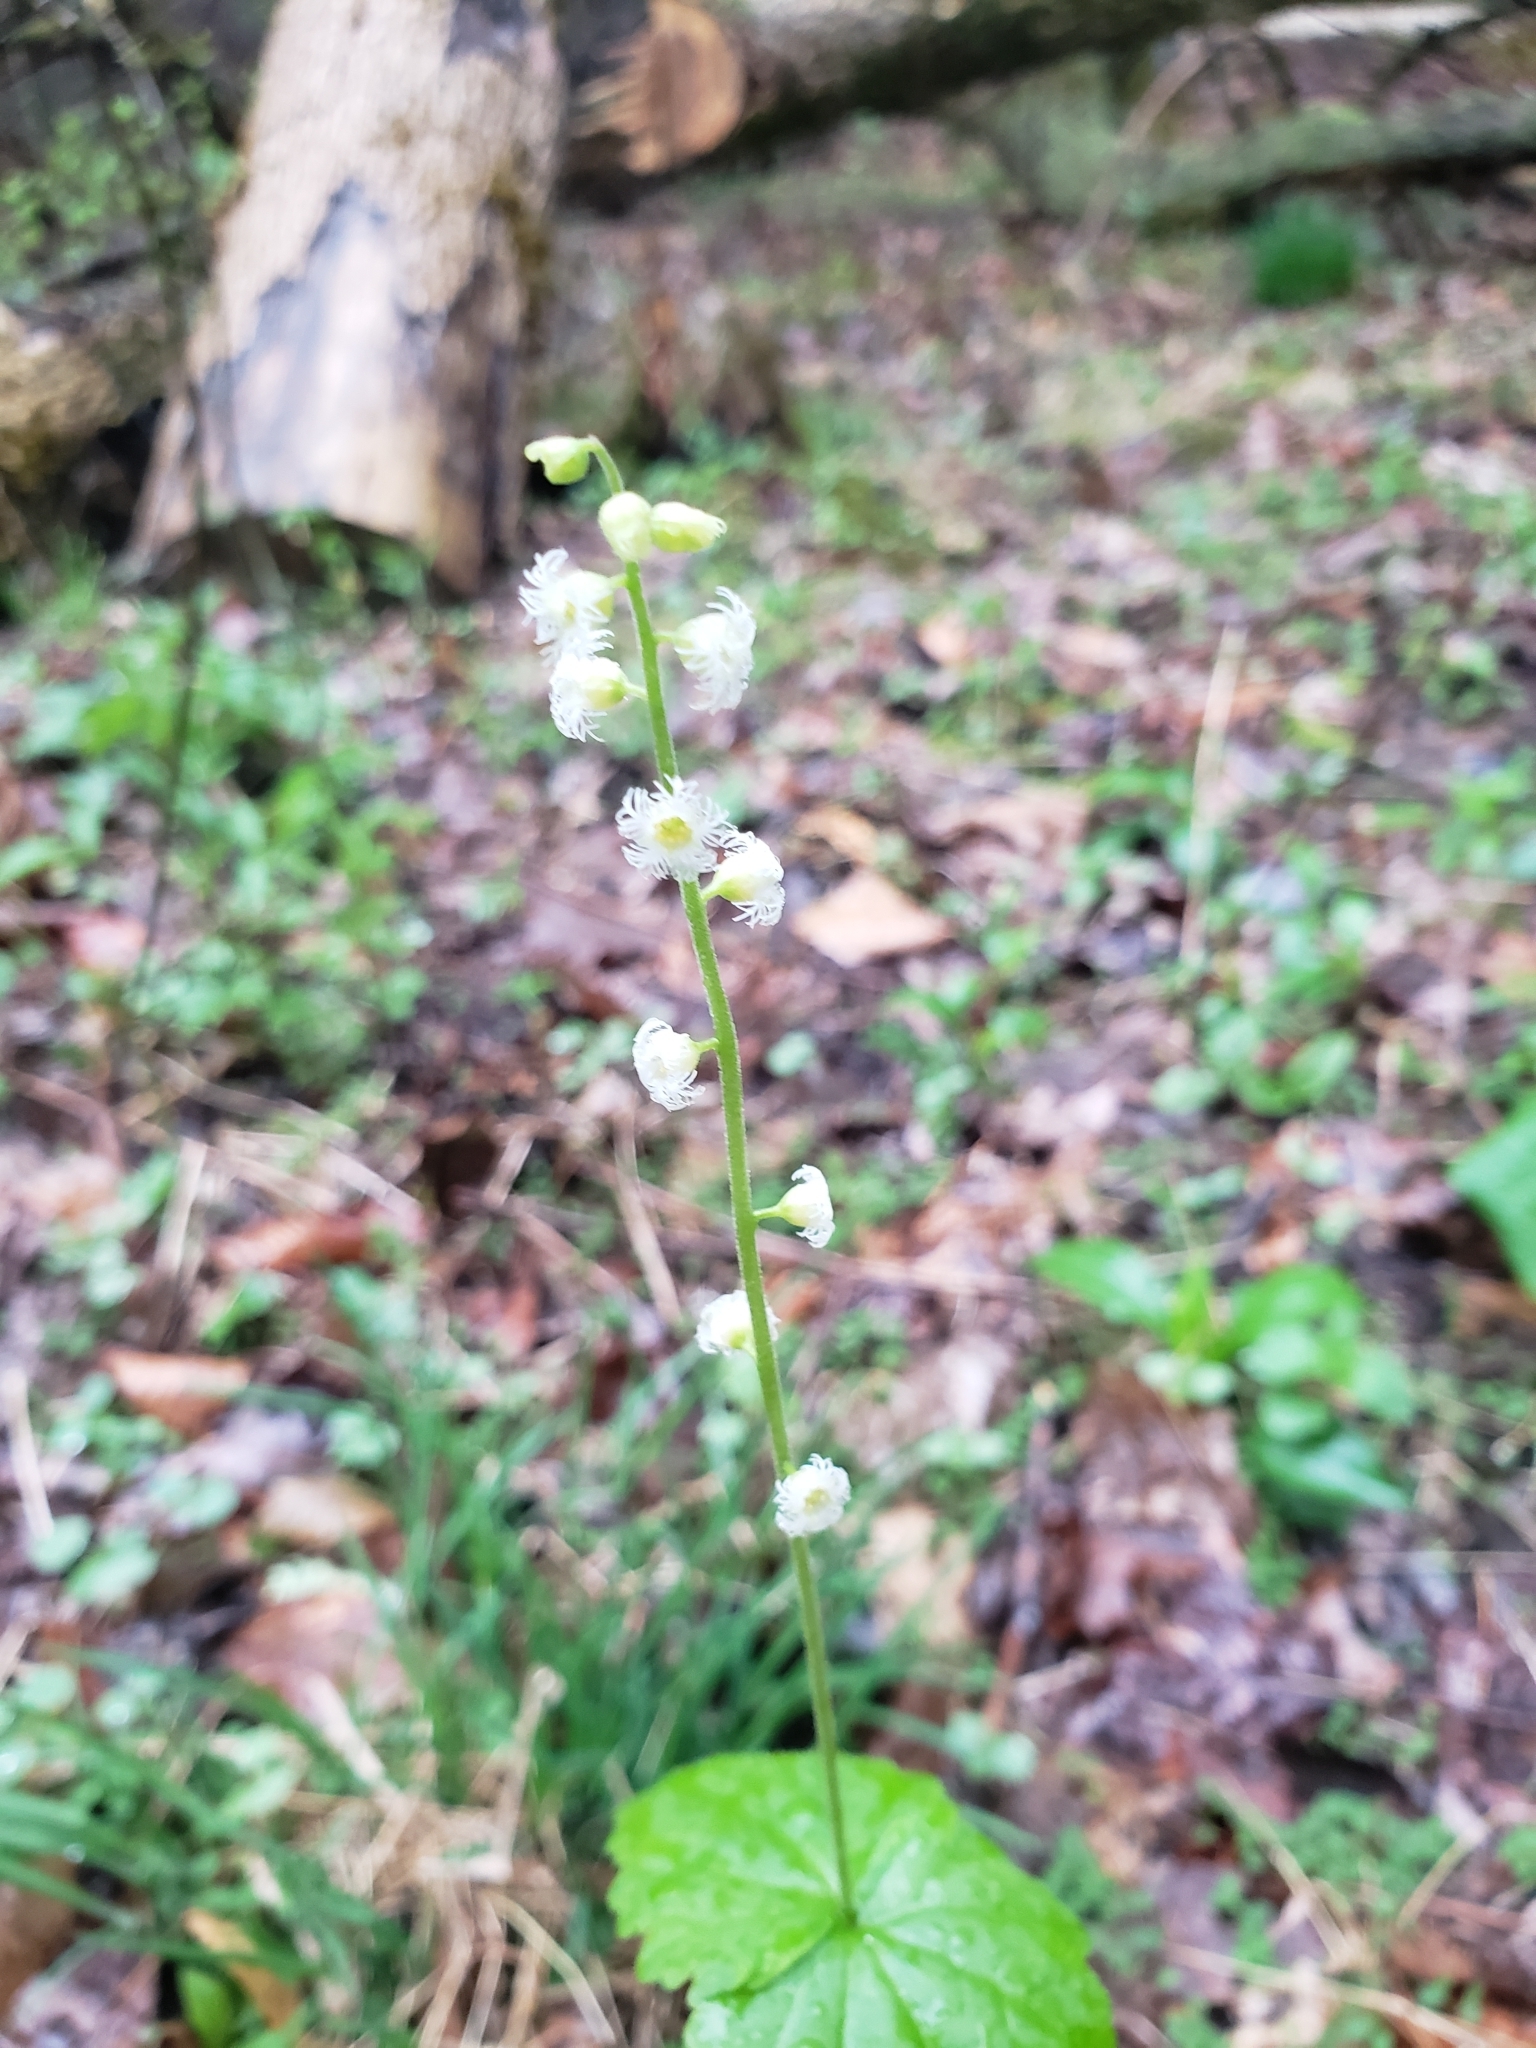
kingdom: Plantae
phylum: Tracheophyta
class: Magnoliopsida
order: Saxifragales
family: Saxifragaceae
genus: Mitella
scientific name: Mitella diphylla
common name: Coolwort
